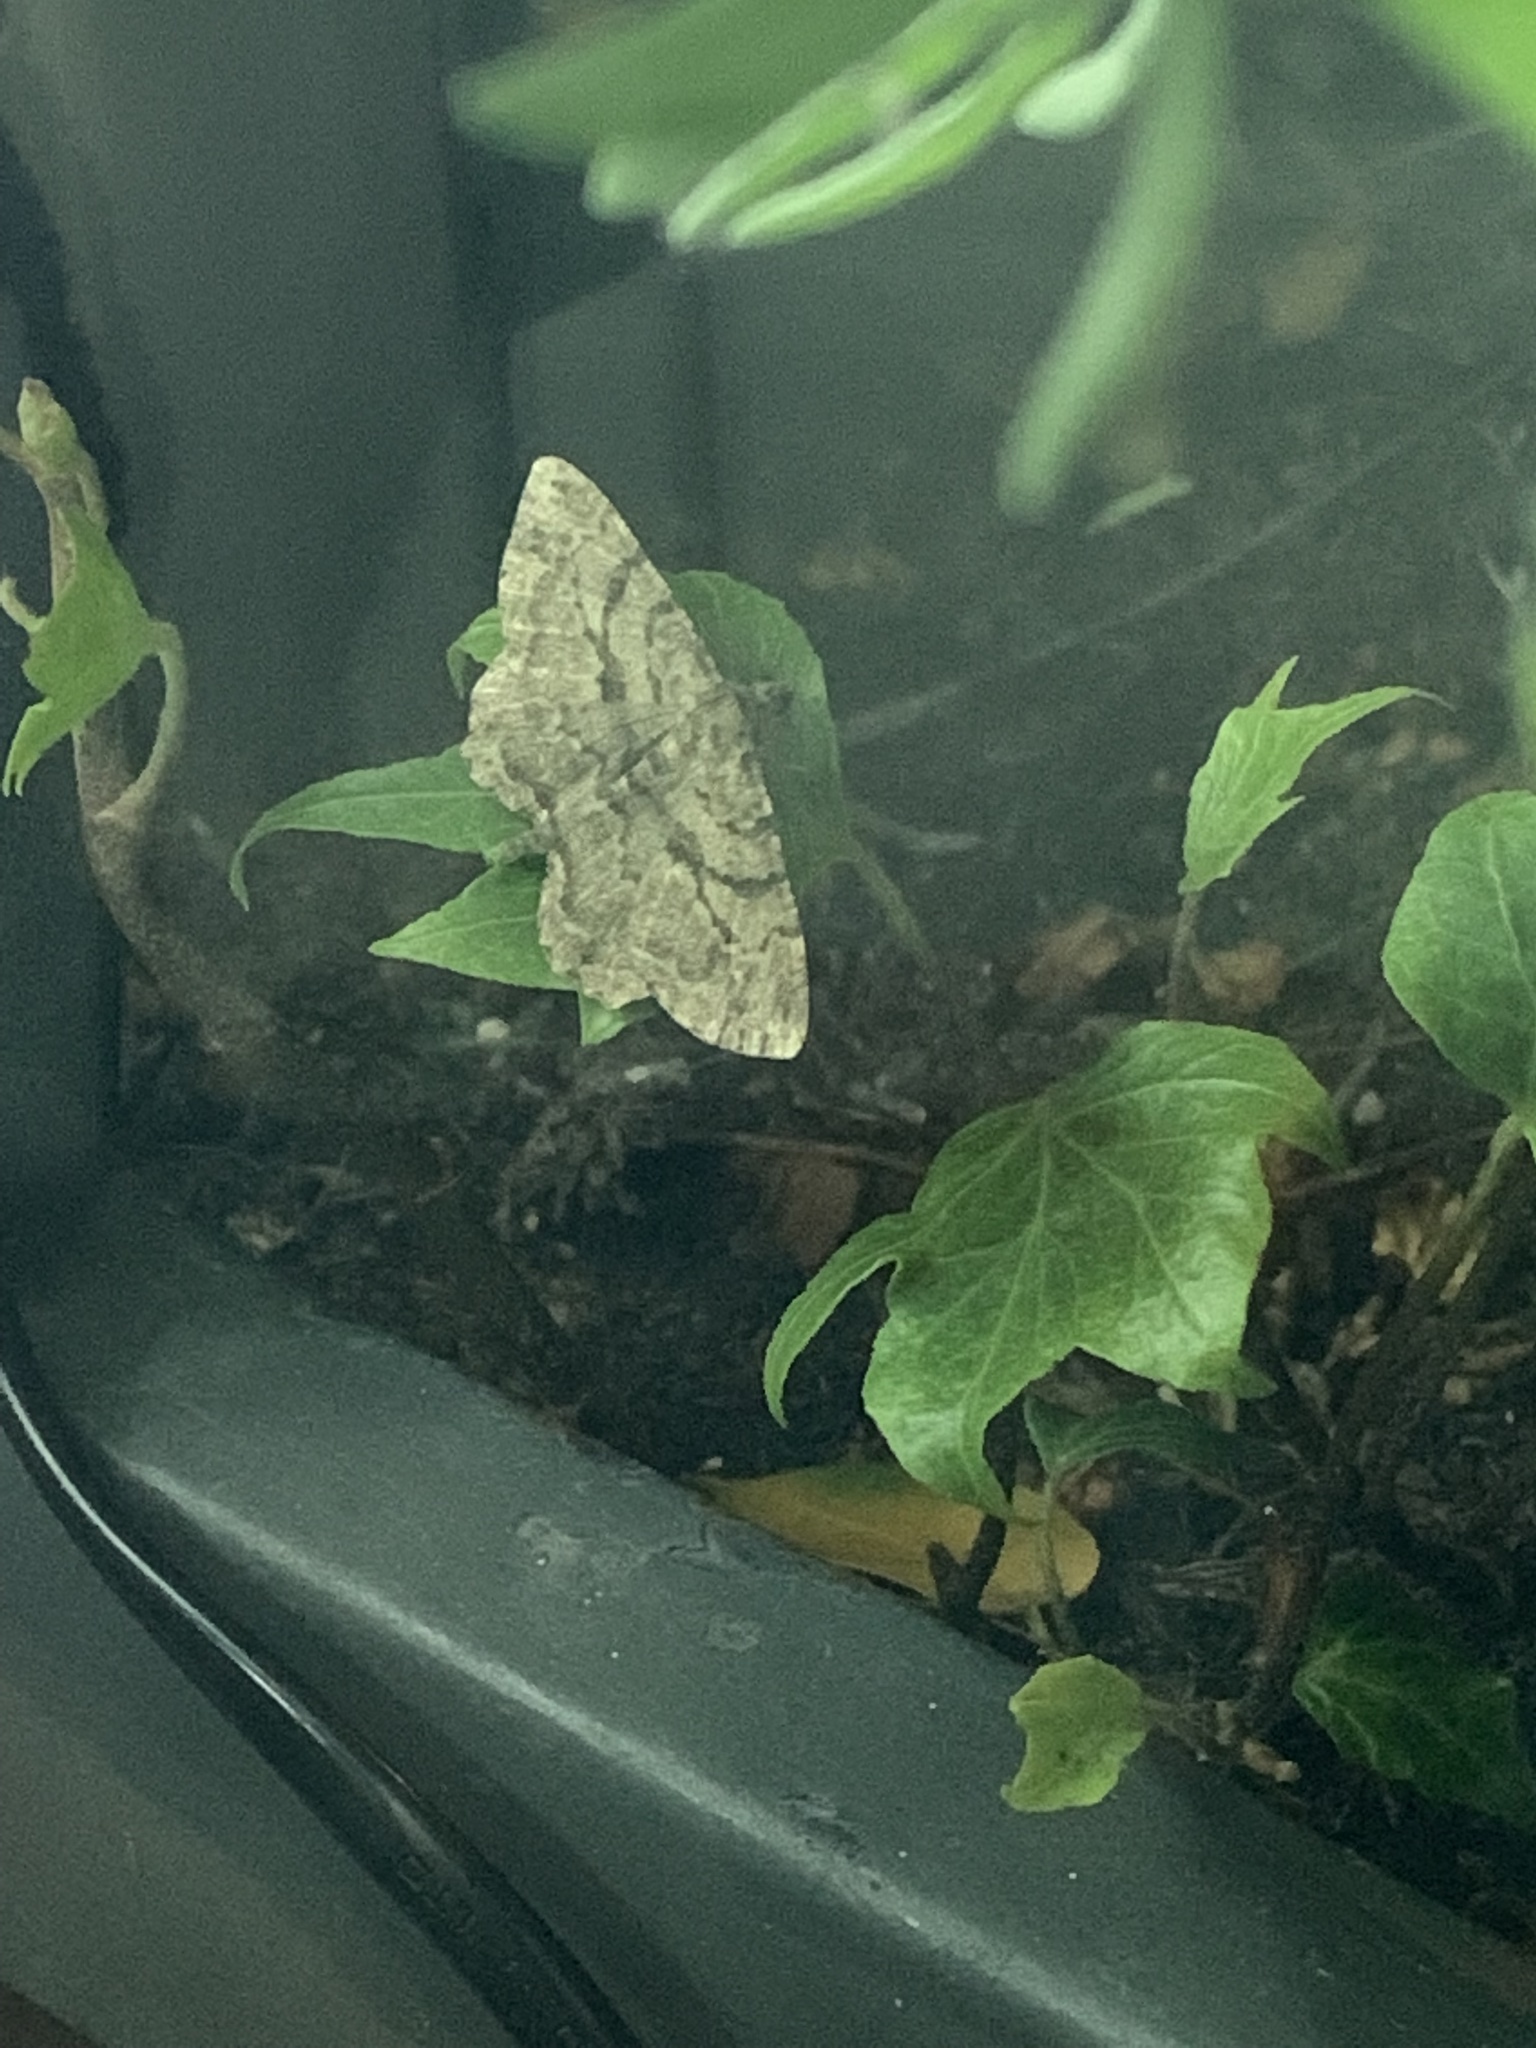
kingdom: Animalia
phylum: Arthropoda
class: Insecta
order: Lepidoptera
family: Geometridae
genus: Peribatodes
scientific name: Peribatodes rhomboidaria
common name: Willow beauty
